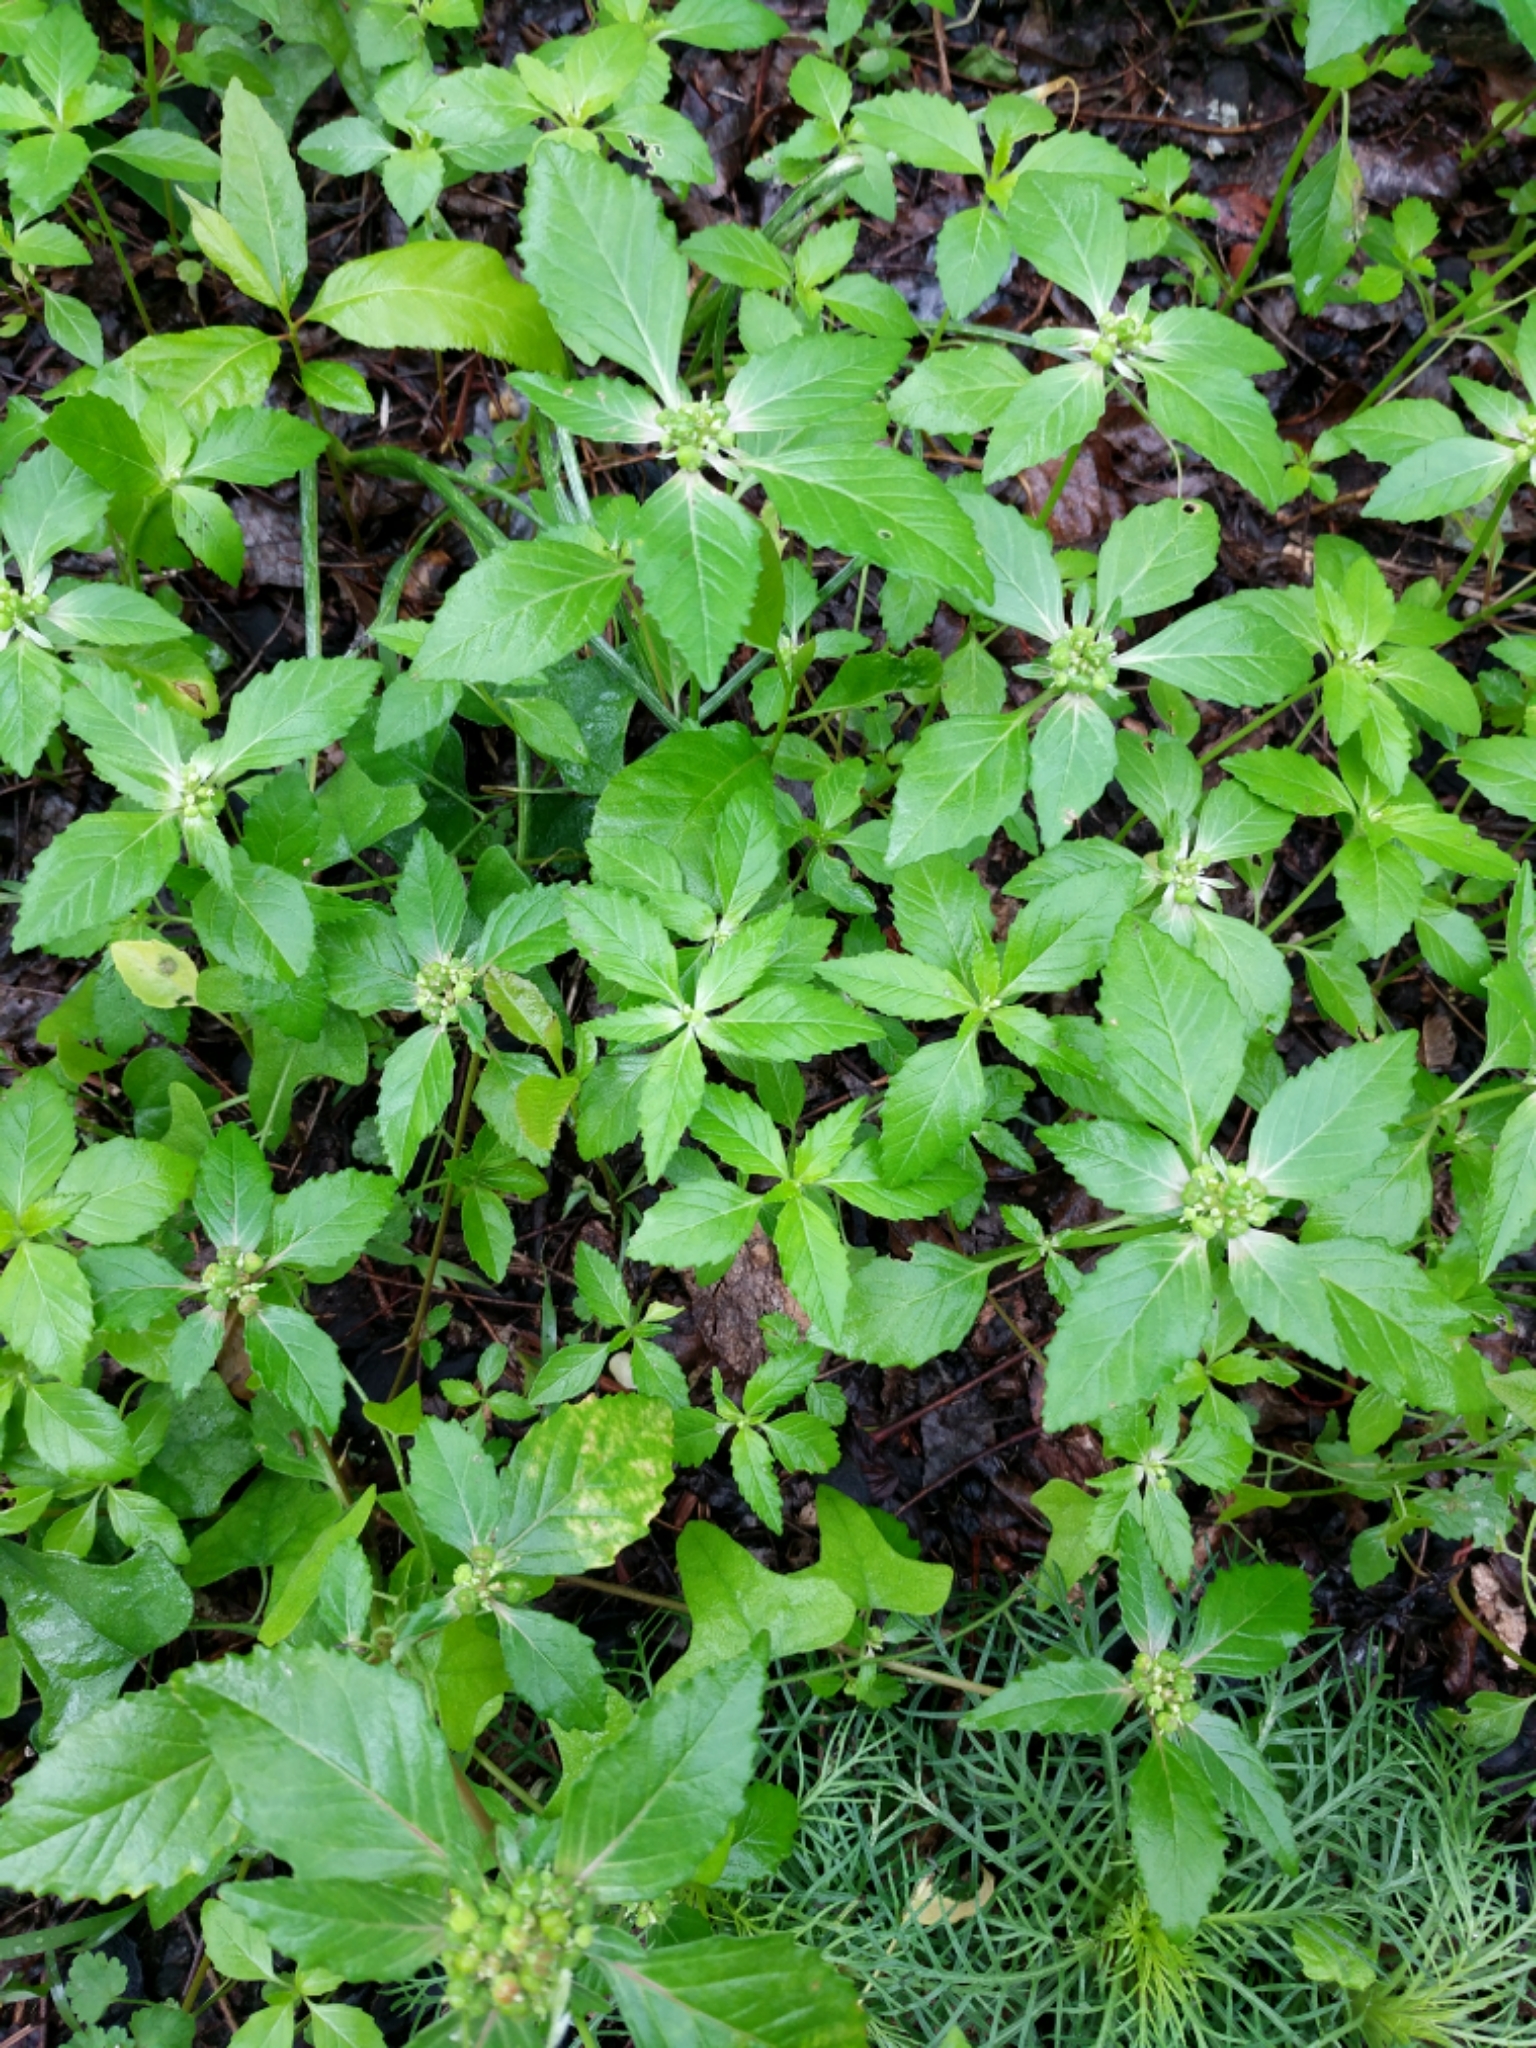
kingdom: Plantae
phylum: Tracheophyta
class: Magnoliopsida
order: Malpighiales
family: Euphorbiaceae
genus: Euphorbia
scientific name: Euphorbia dentata
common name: Dentate spurge
